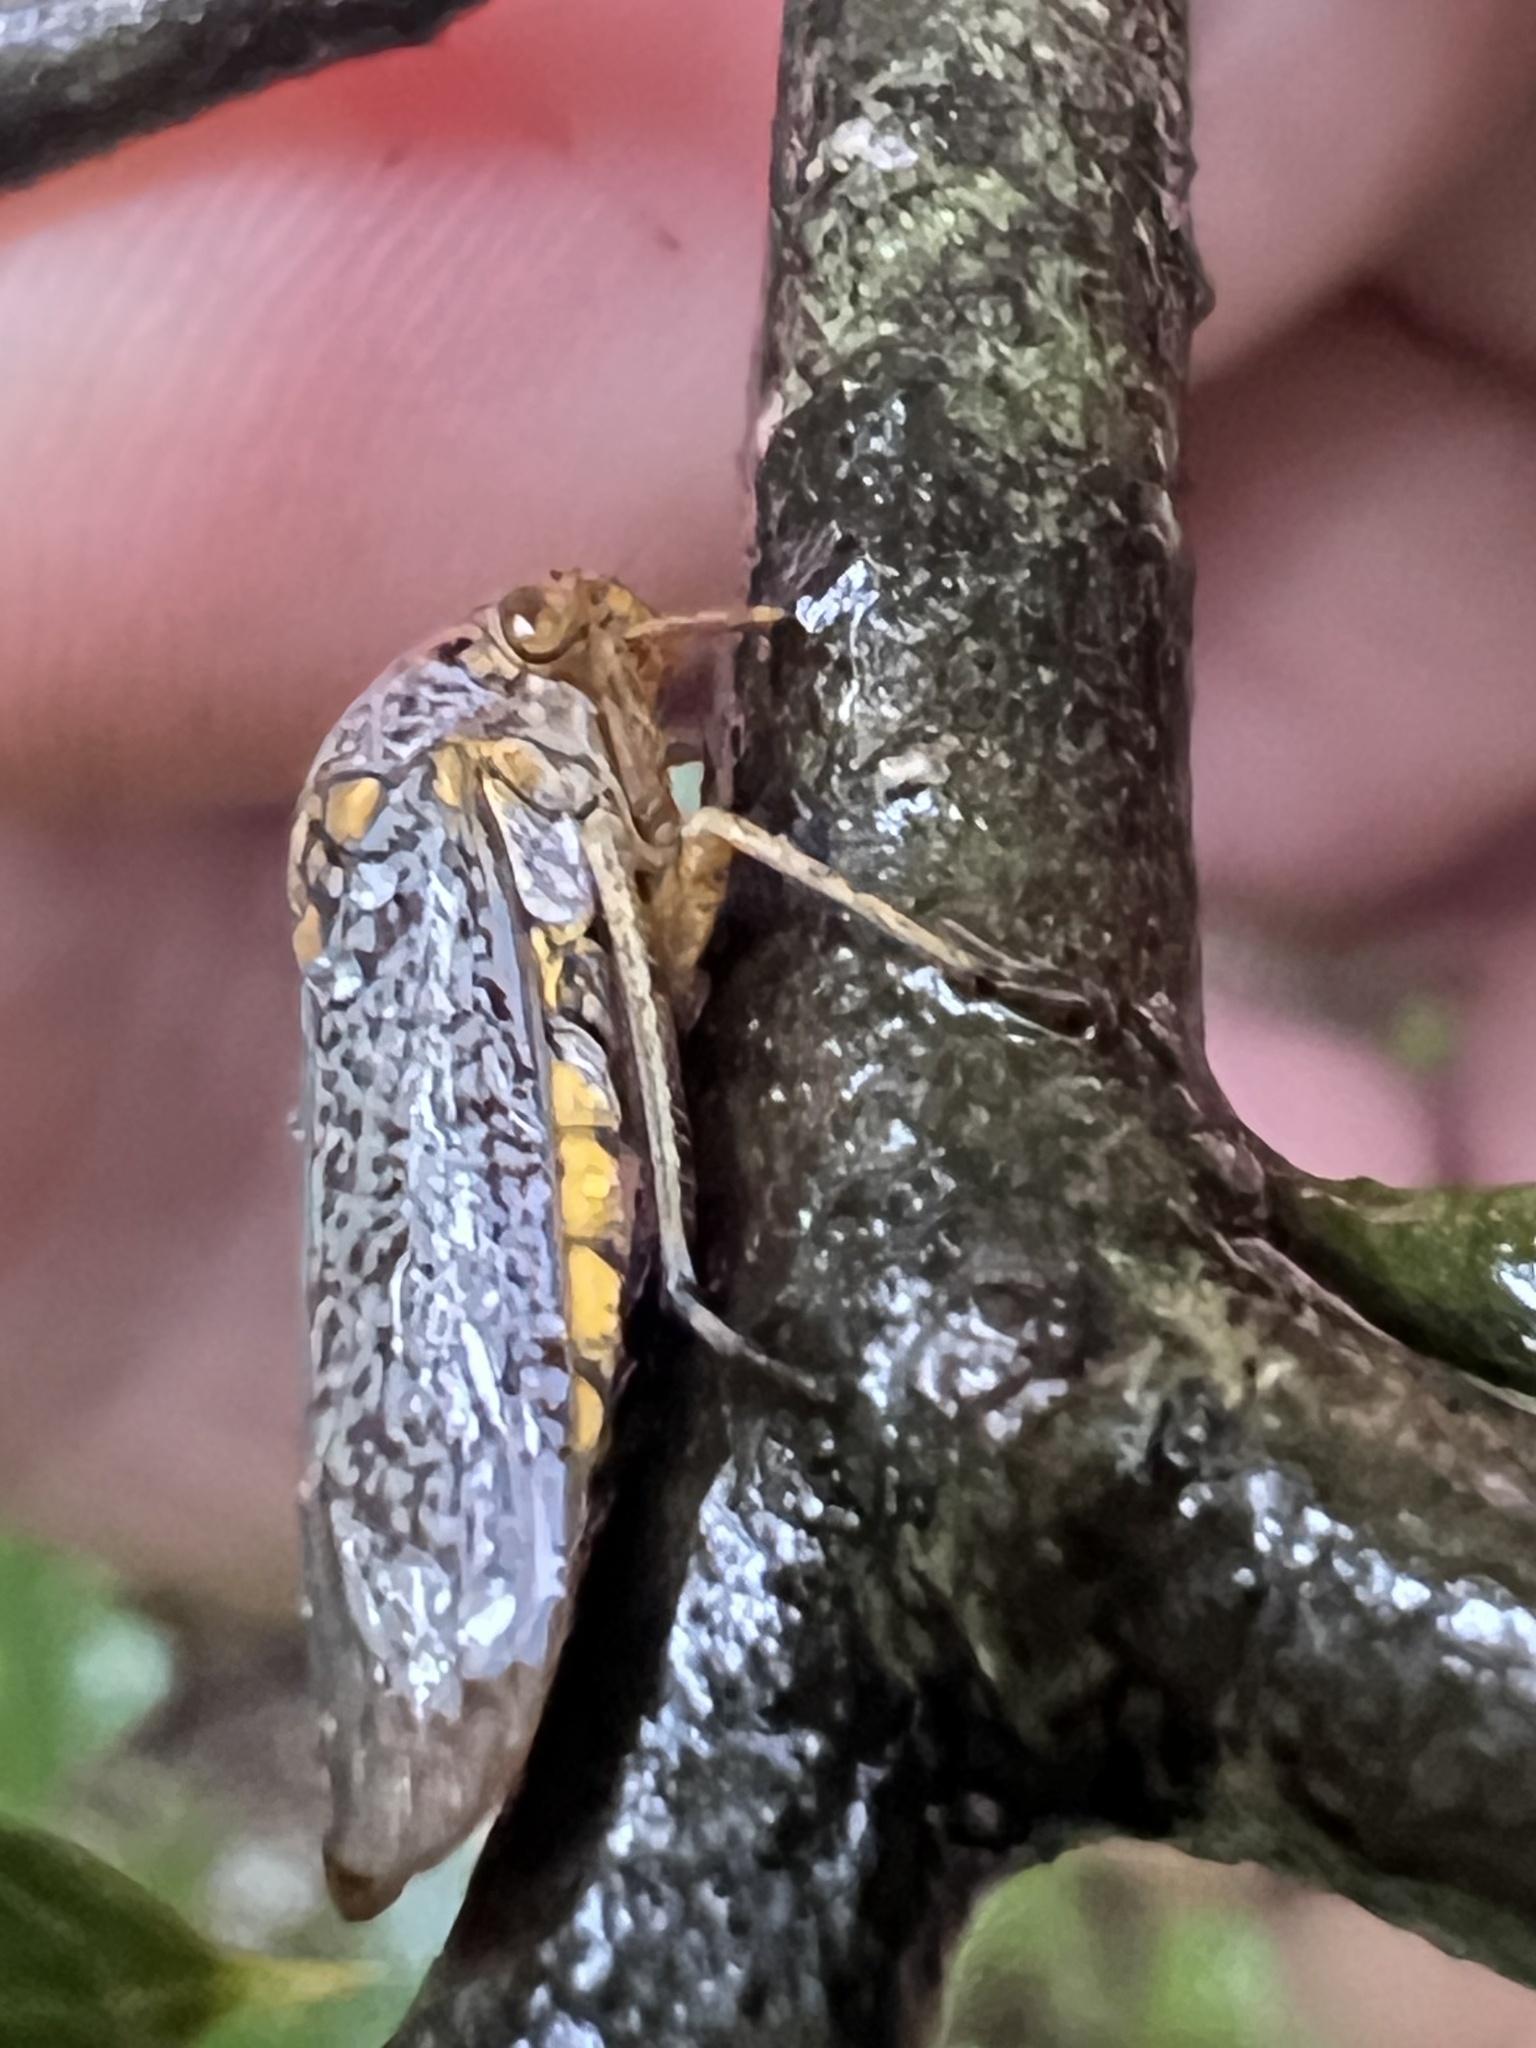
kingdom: Animalia
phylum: Arthropoda
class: Insecta
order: Hemiptera
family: Cicadellidae
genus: Oncometopia
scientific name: Oncometopia orbona
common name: Broad-headed sharpshooter
